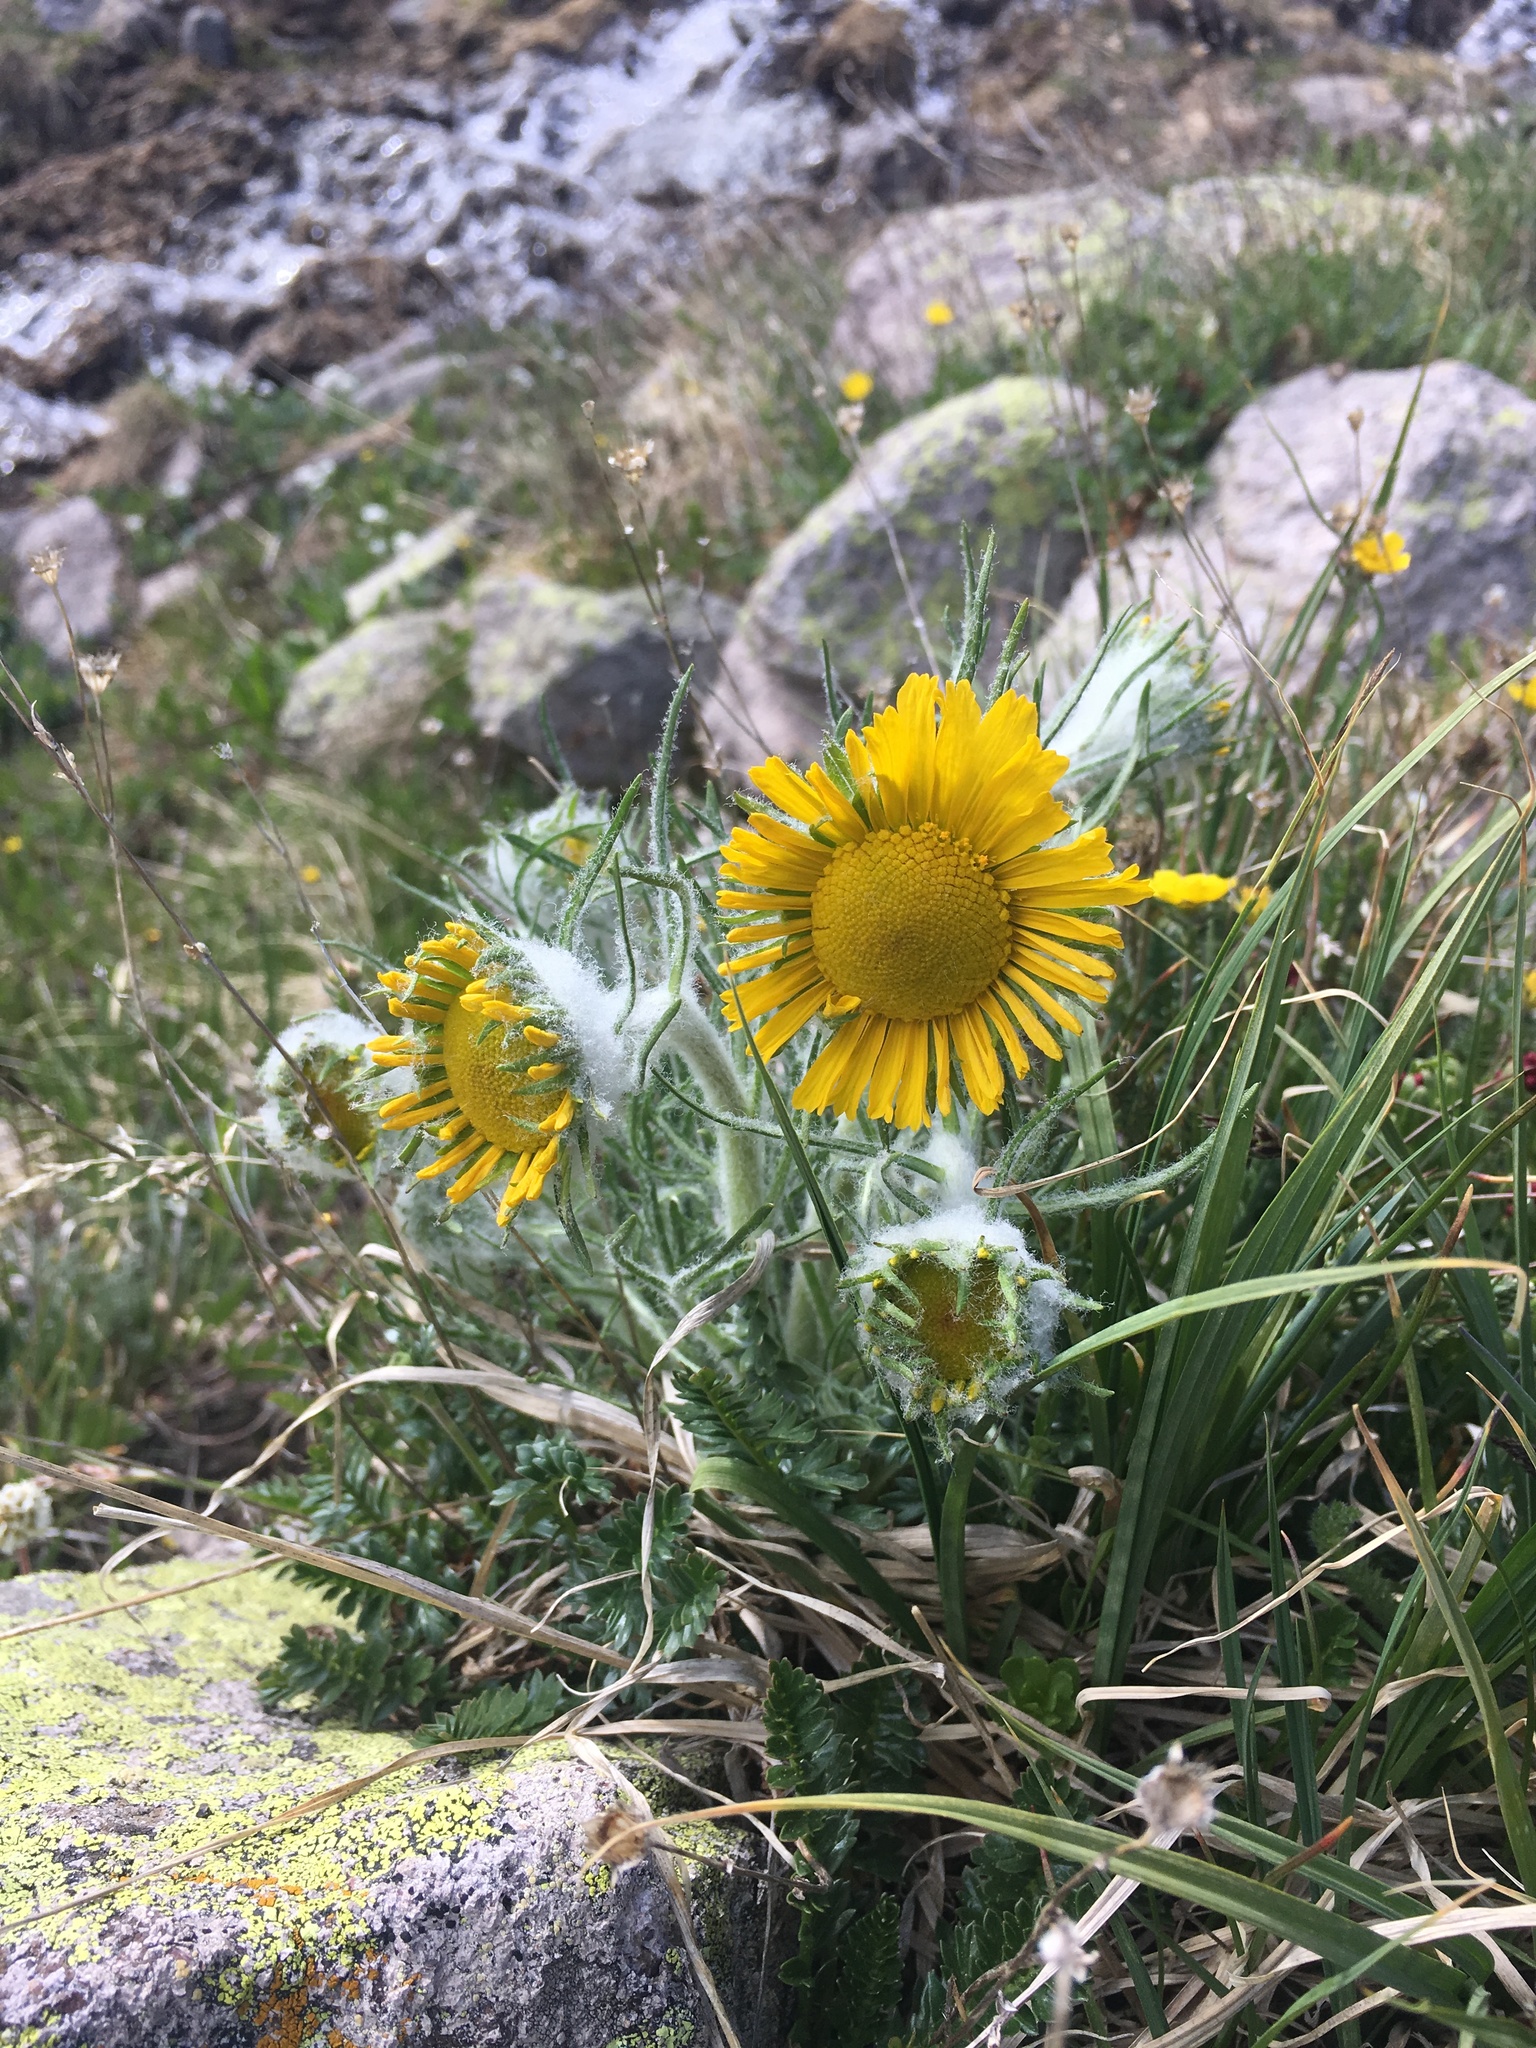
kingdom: Plantae
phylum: Tracheophyta
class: Magnoliopsida
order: Asterales
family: Asteraceae
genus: Hymenoxys
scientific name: Hymenoxys grandiflora
